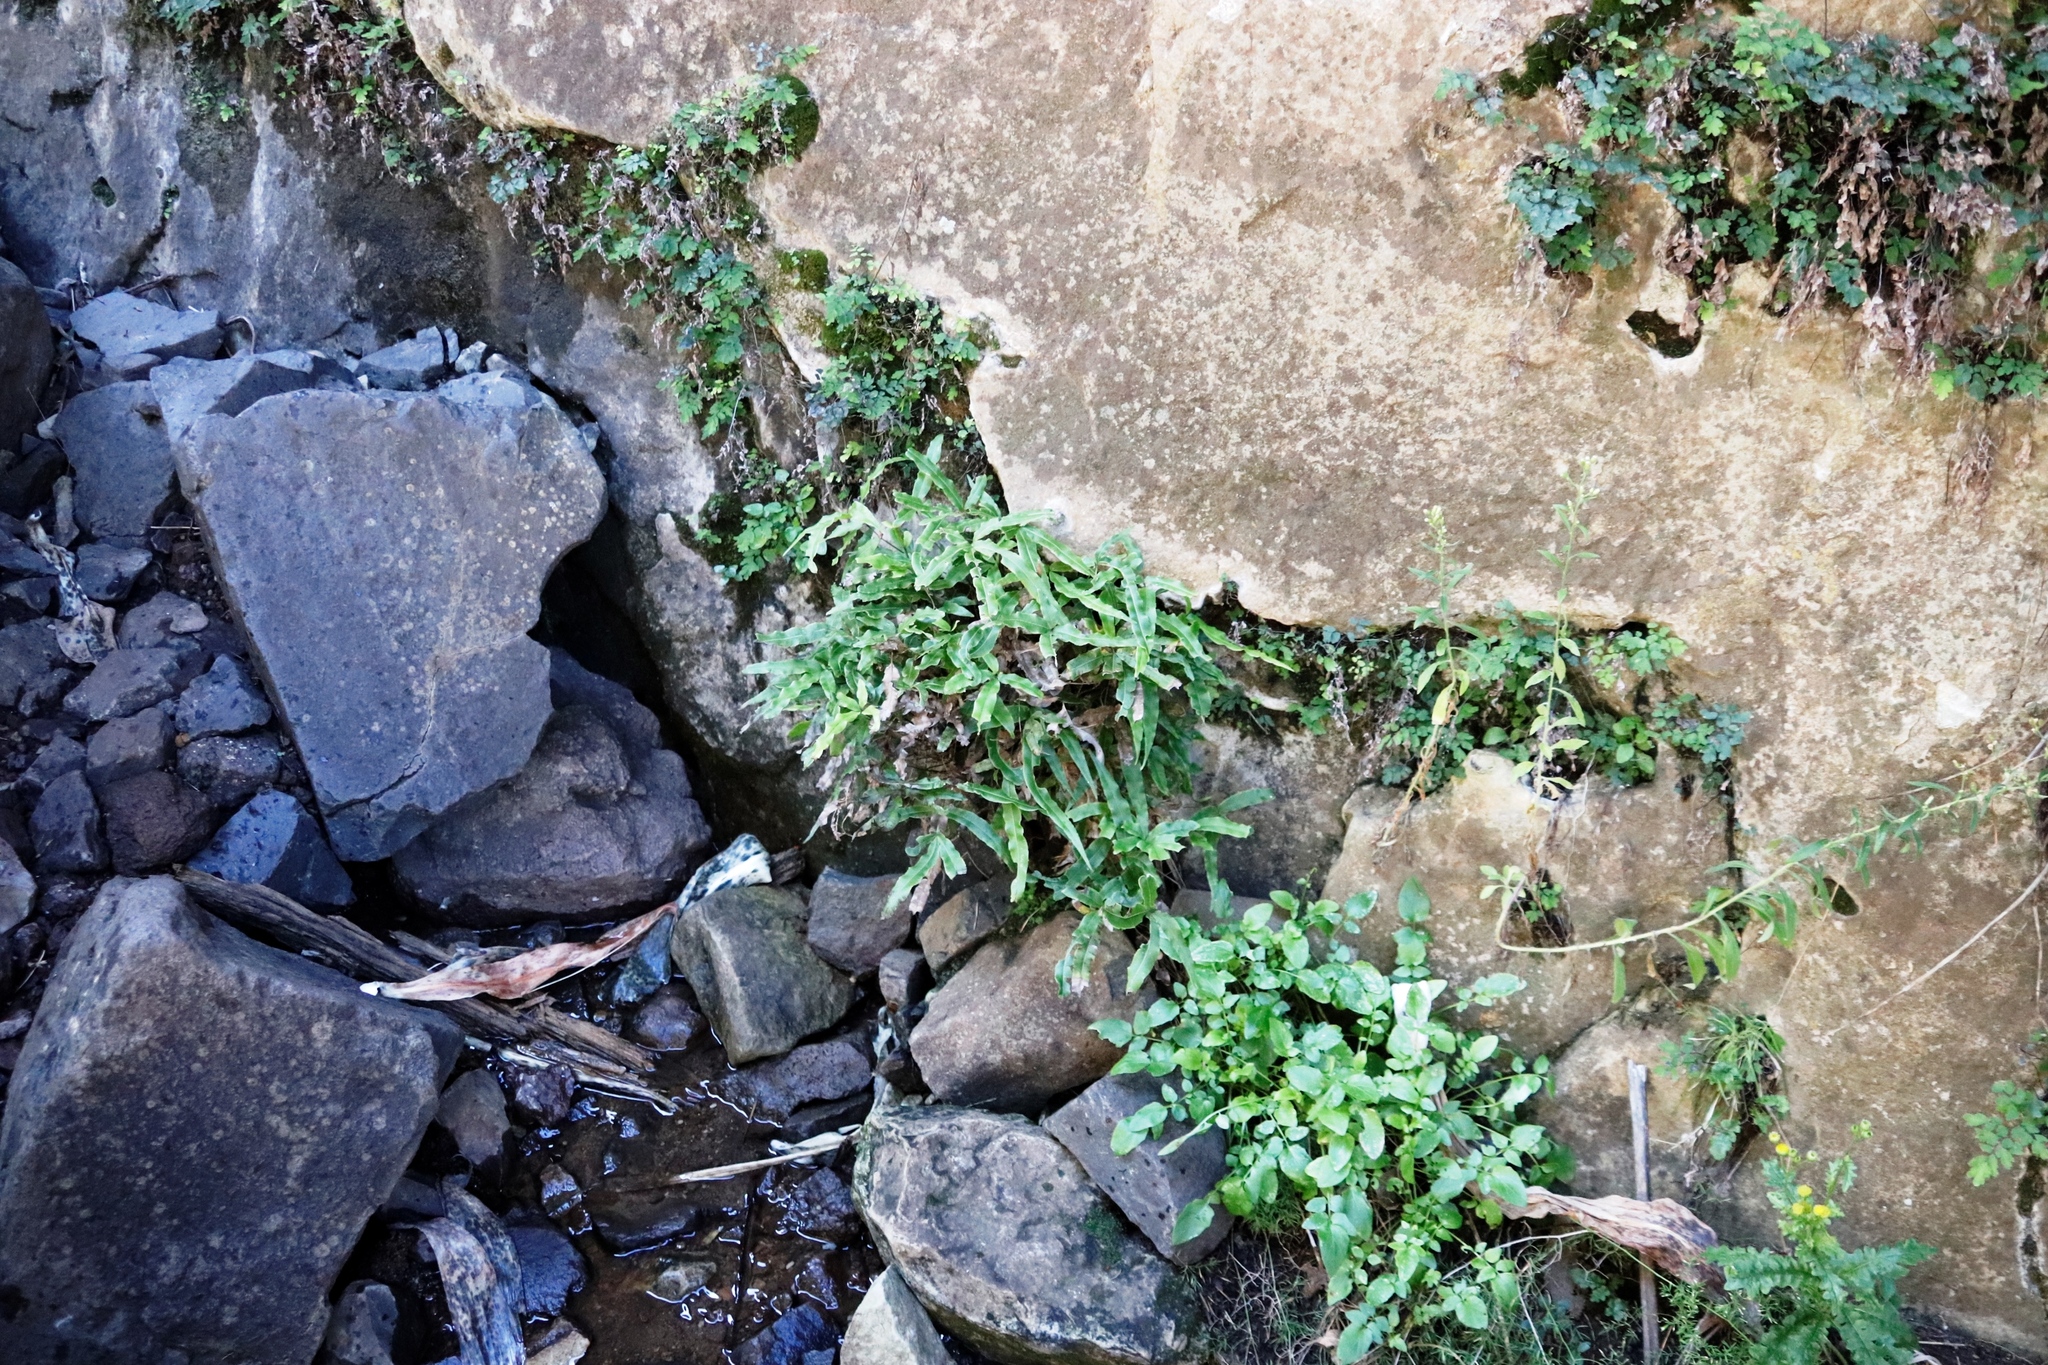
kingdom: Plantae
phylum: Tracheophyta
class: Polypodiopsida
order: Polypodiales
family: Pteridaceae
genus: Pteris
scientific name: Pteris cretica
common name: Ribbon fern
